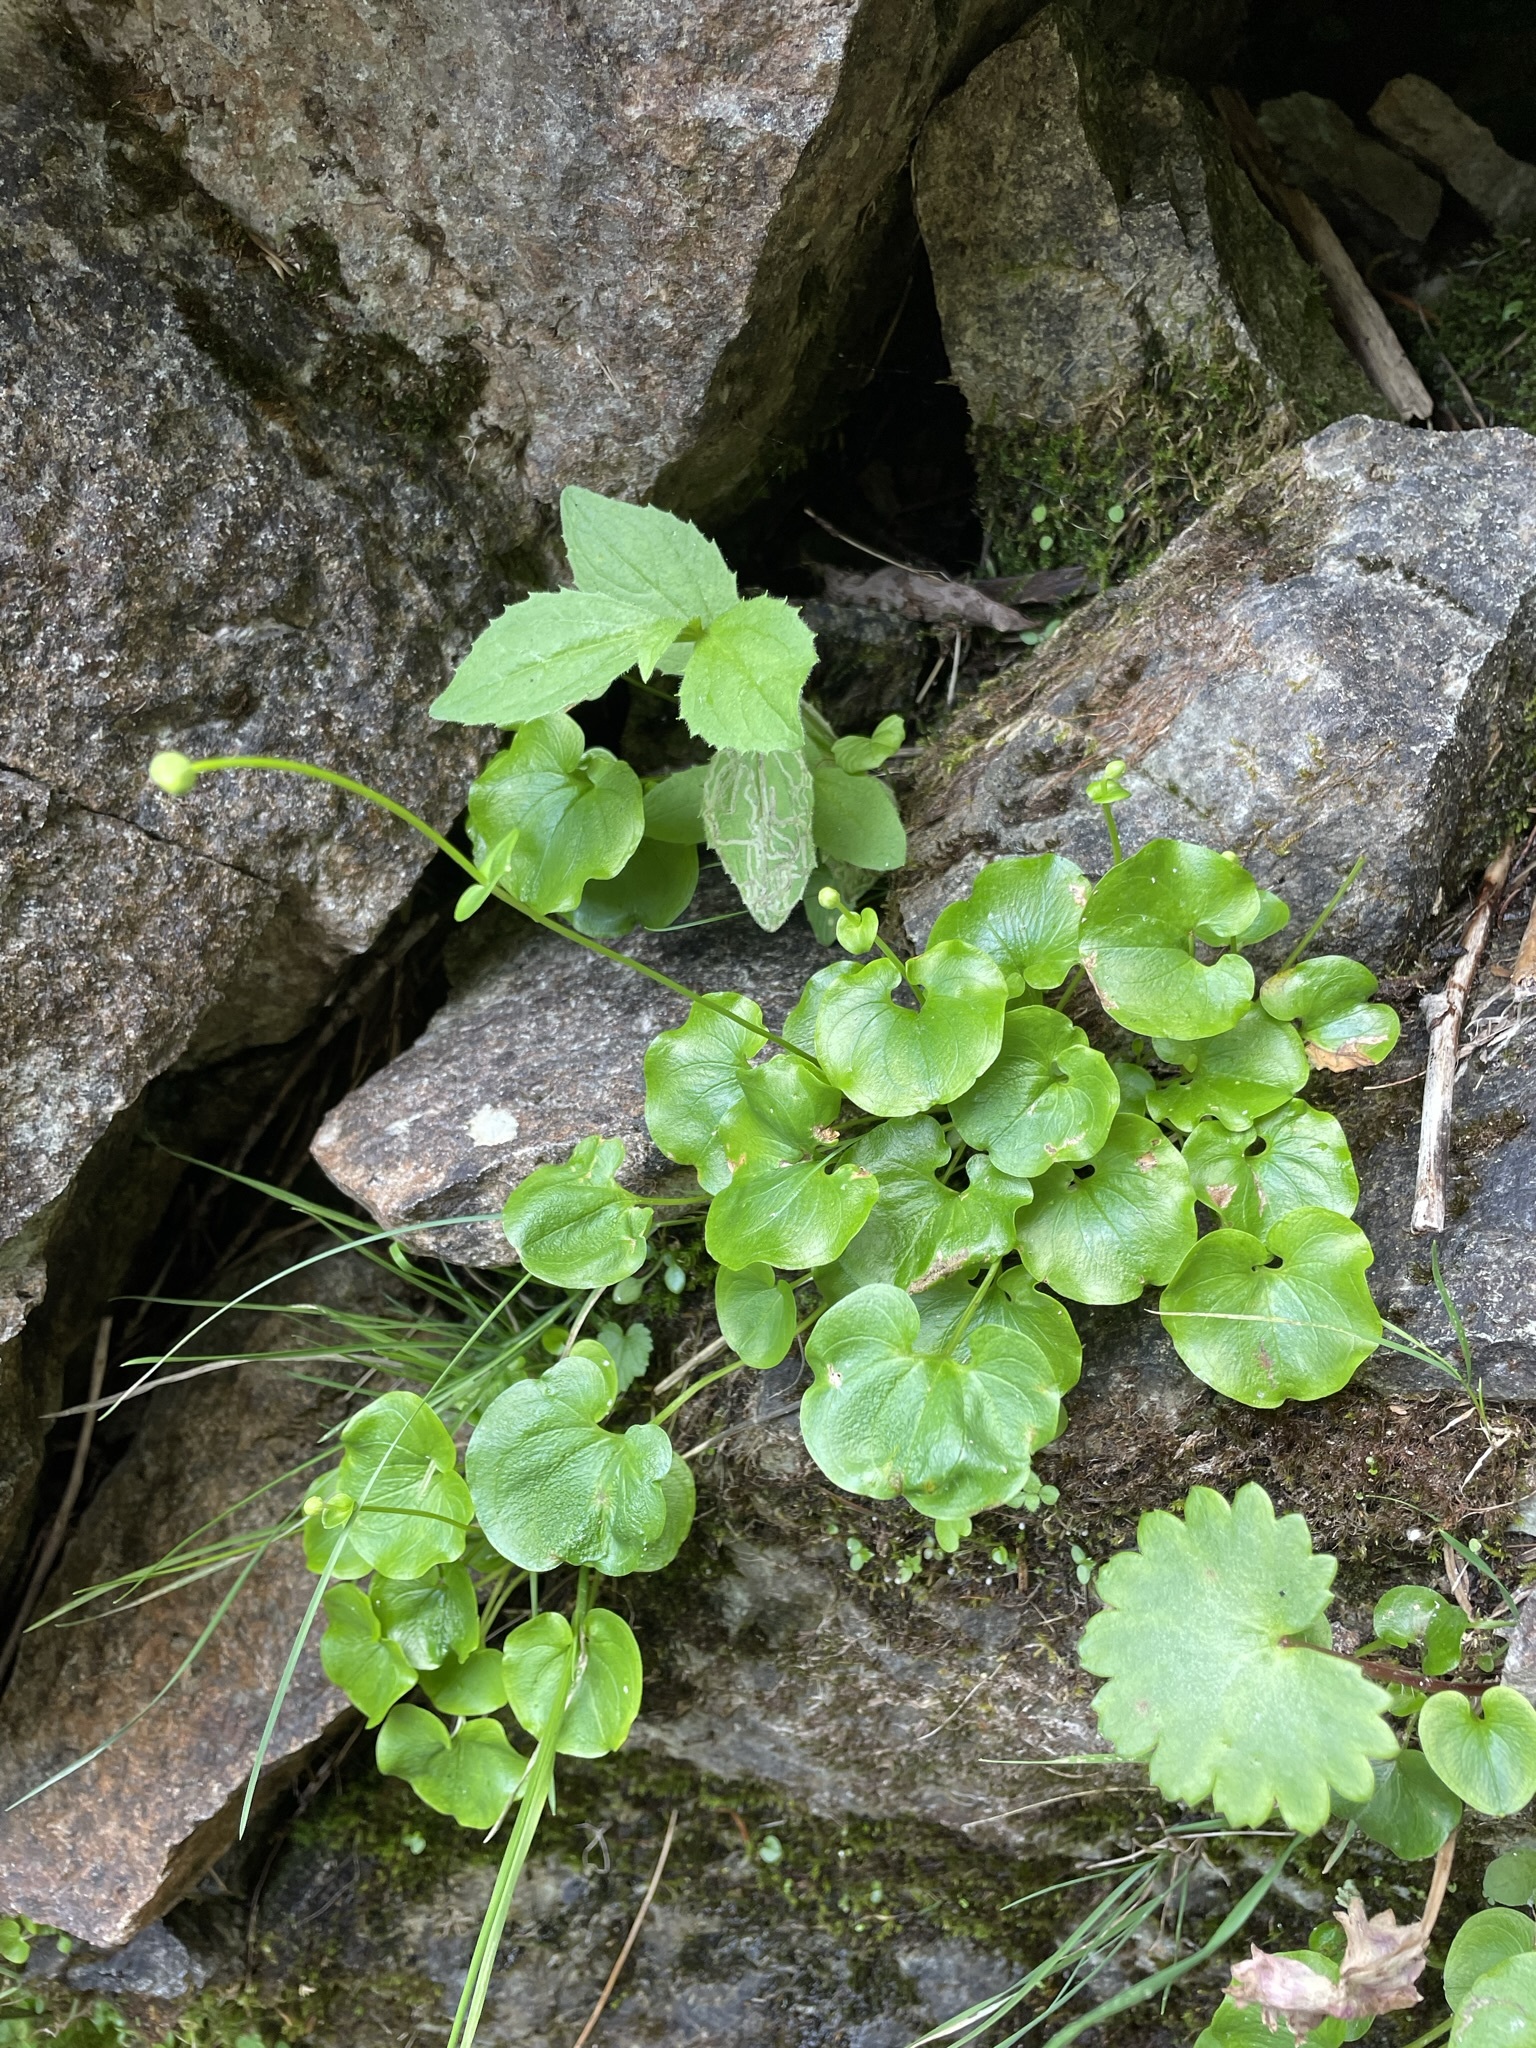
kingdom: Plantae
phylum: Tracheophyta
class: Magnoliopsida
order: Celastrales
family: Parnassiaceae
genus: Parnassia
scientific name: Parnassia fimbriata
